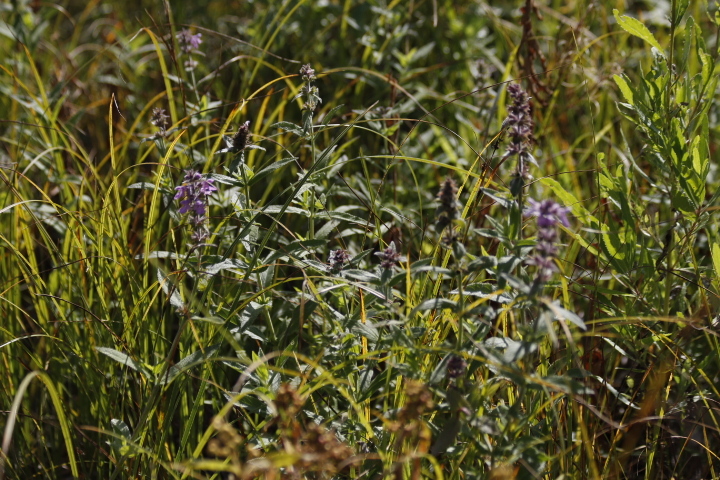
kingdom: Plantae
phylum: Tracheophyta
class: Magnoliopsida
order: Lamiales
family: Lamiaceae
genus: Stachys
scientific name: Stachys palustris
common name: Marsh woundwort
